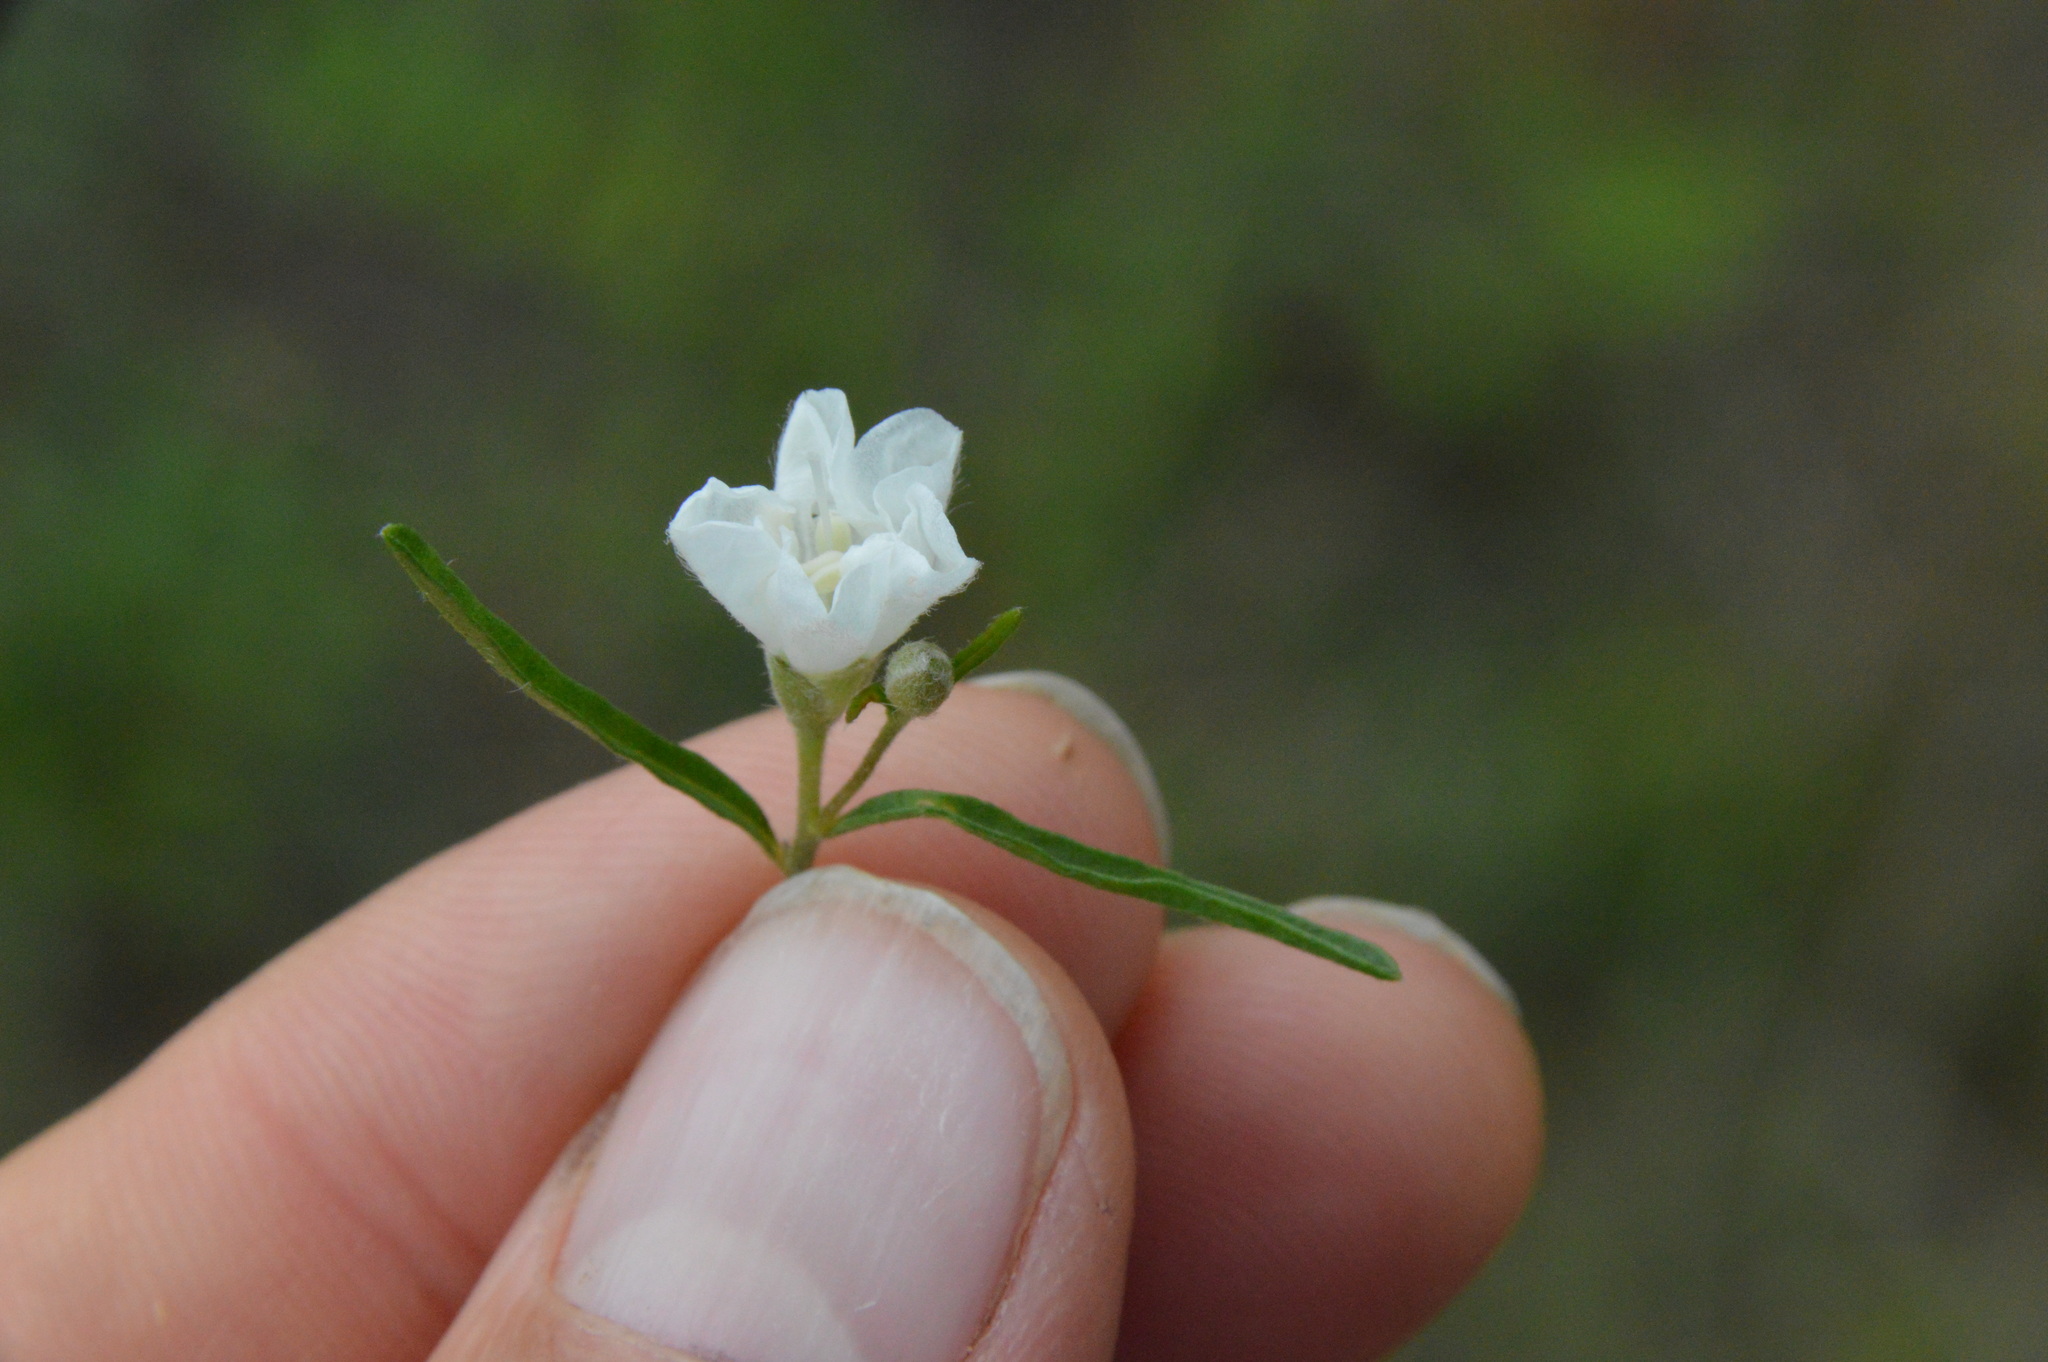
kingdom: Plantae
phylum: Tracheophyta
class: Magnoliopsida
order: Solanales
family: Convolvulaceae
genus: Stylisma
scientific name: Stylisma pickeringii
